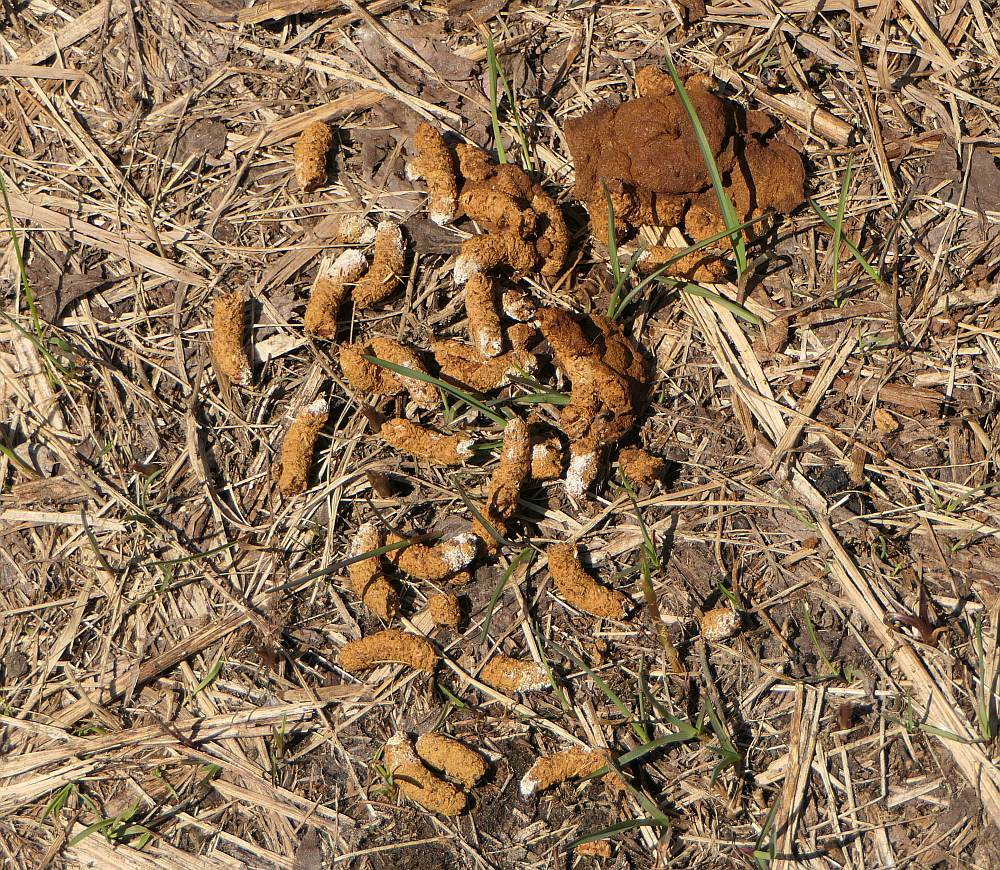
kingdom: Animalia
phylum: Chordata
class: Aves
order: Galliformes
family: Phasianidae
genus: Bonasa
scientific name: Bonasa umbellus
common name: Ruffed grouse
